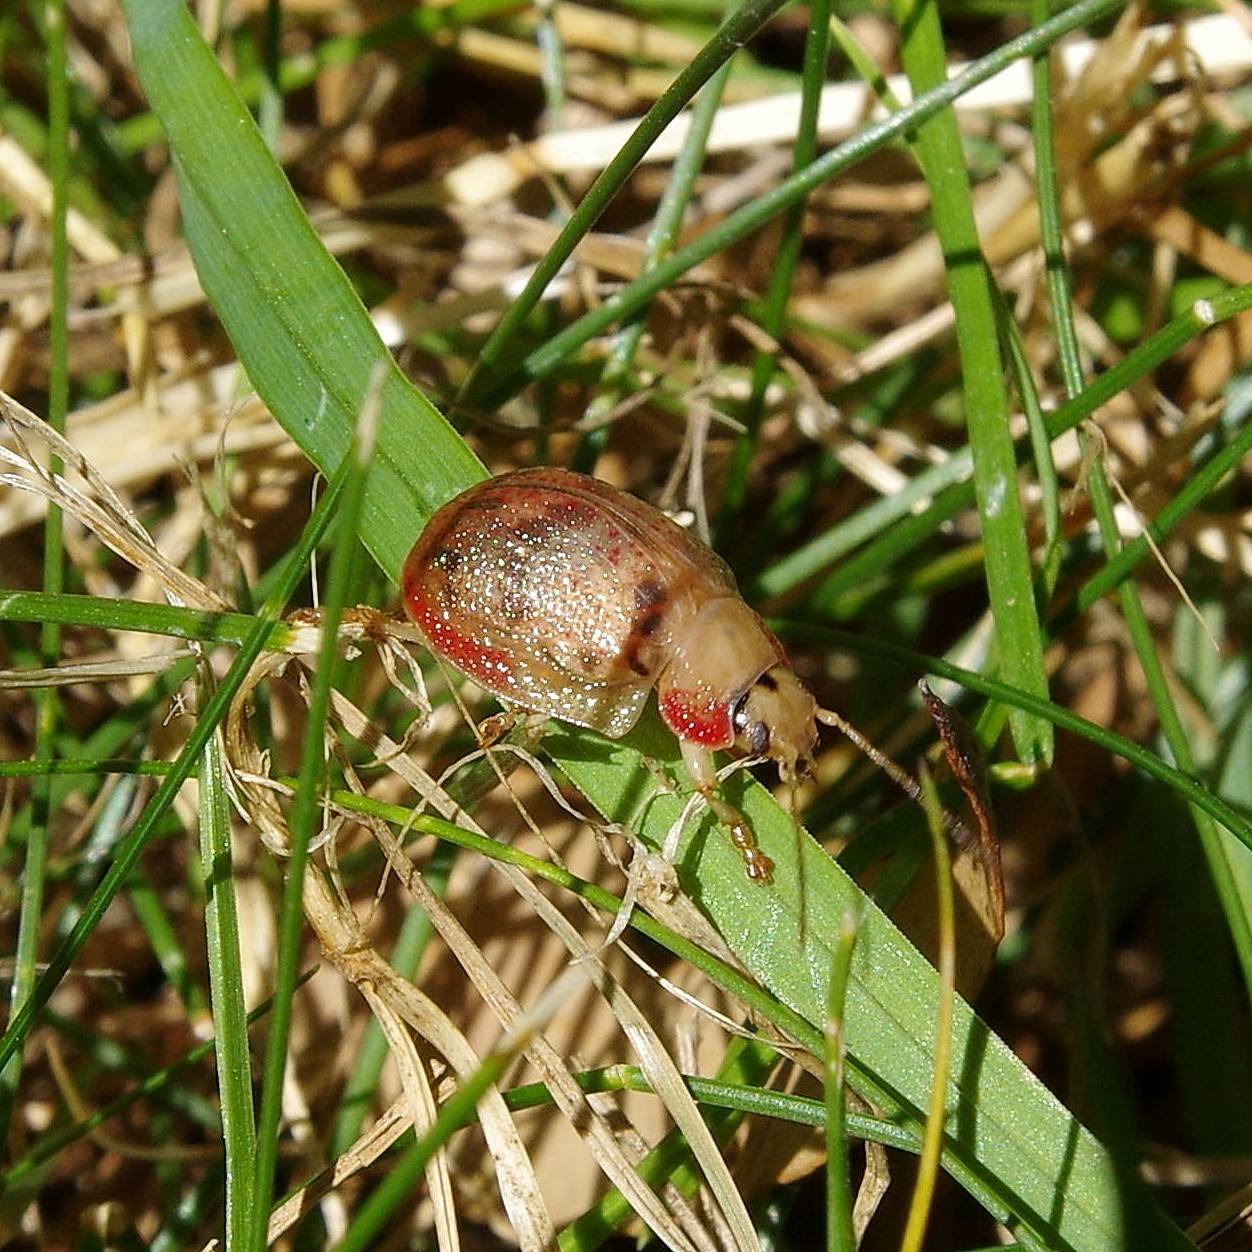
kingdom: Animalia
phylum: Arthropoda
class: Insecta
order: Coleoptera
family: Chrysomelidae
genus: Paropsis
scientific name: Paropsis charybdis
